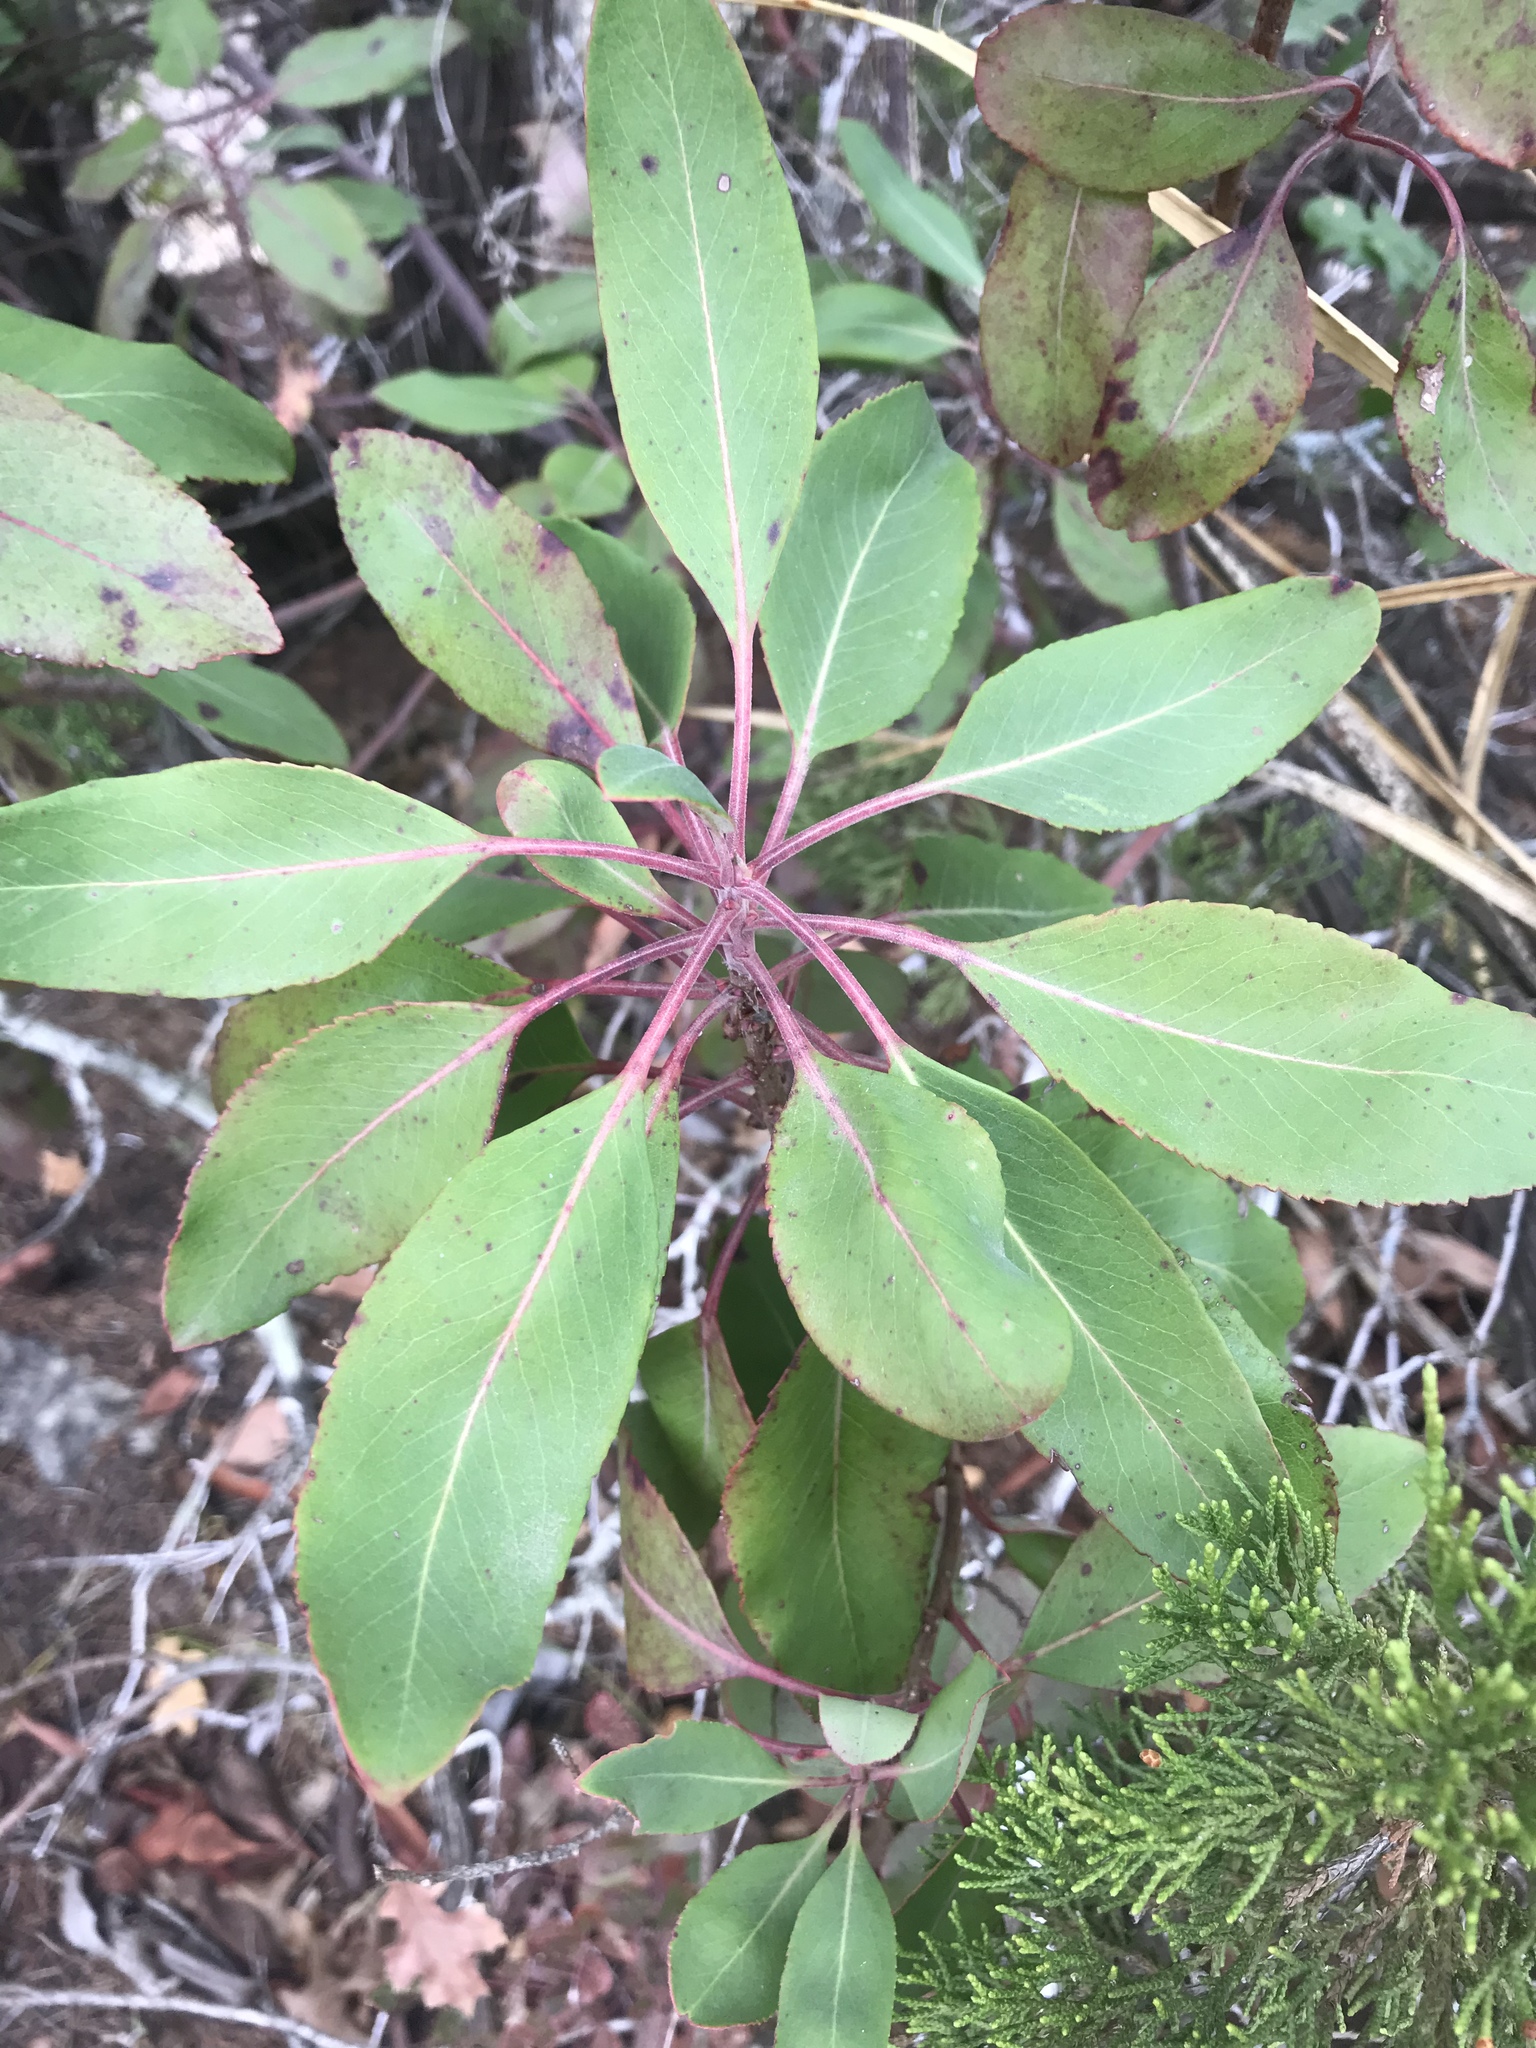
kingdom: Plantae
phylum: Tracheophyta
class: Magnoliopsida
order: Ericales
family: Ericaceae
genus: Arbutus
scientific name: Arbutus xalapensis
